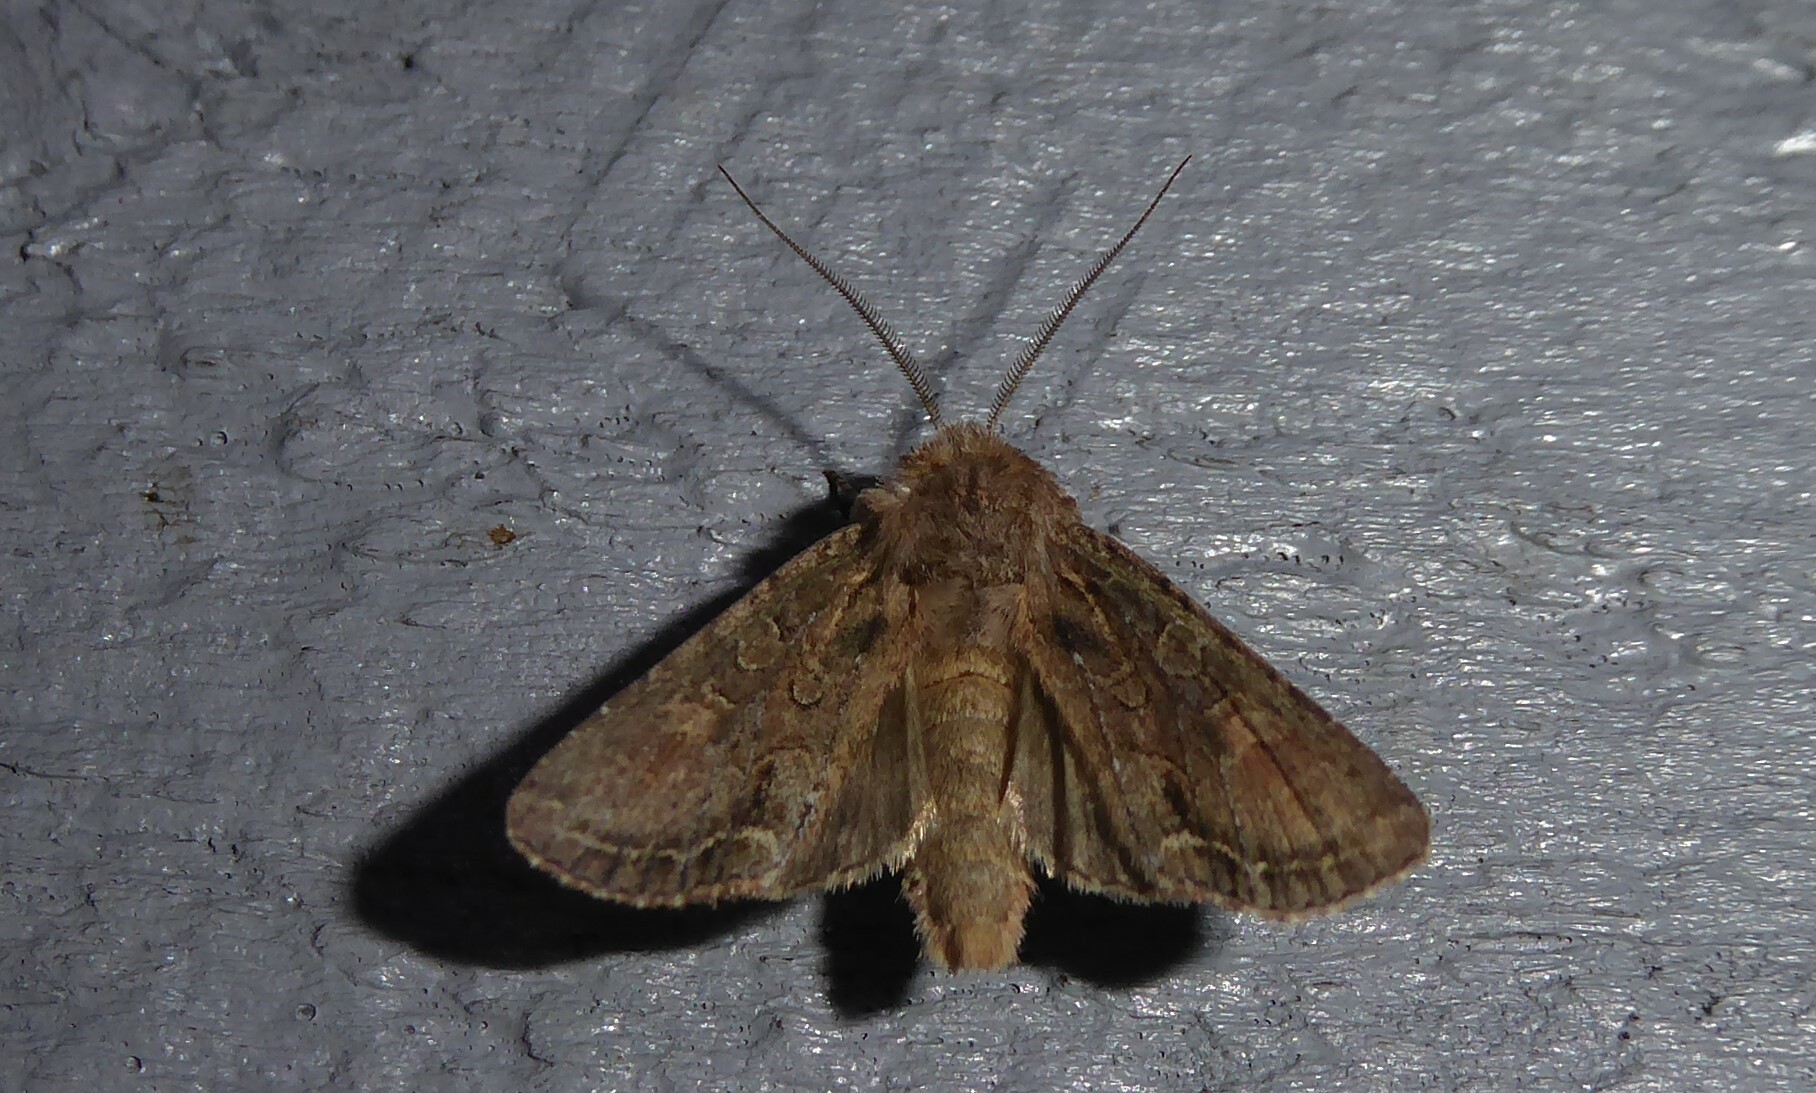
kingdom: Animalia
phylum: Arthropoda
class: Insecta
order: Lepidoptera
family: Noctuidae
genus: Ichneutica
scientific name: Ichneutica mutans
